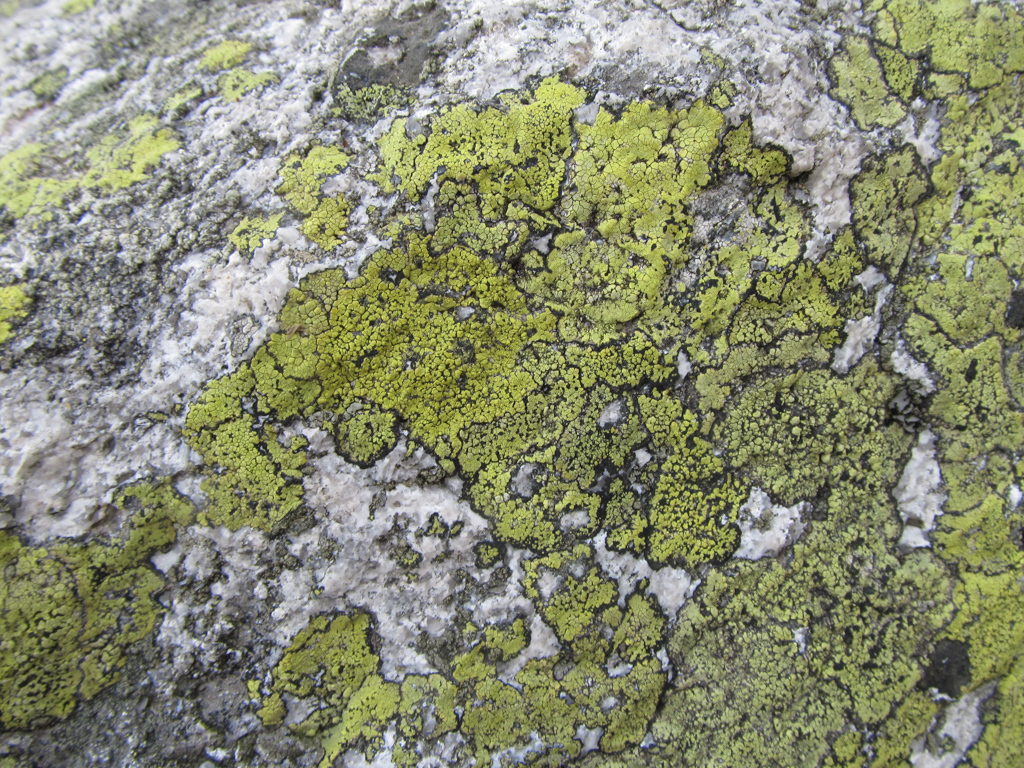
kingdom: Fungi
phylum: Ascomycota
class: Lecanoromycetes
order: Rhizocarpales
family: Rhizocarpaceae
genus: Rhizocarpon
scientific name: Rhizocarpon geographicum
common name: Yellow map lichen
